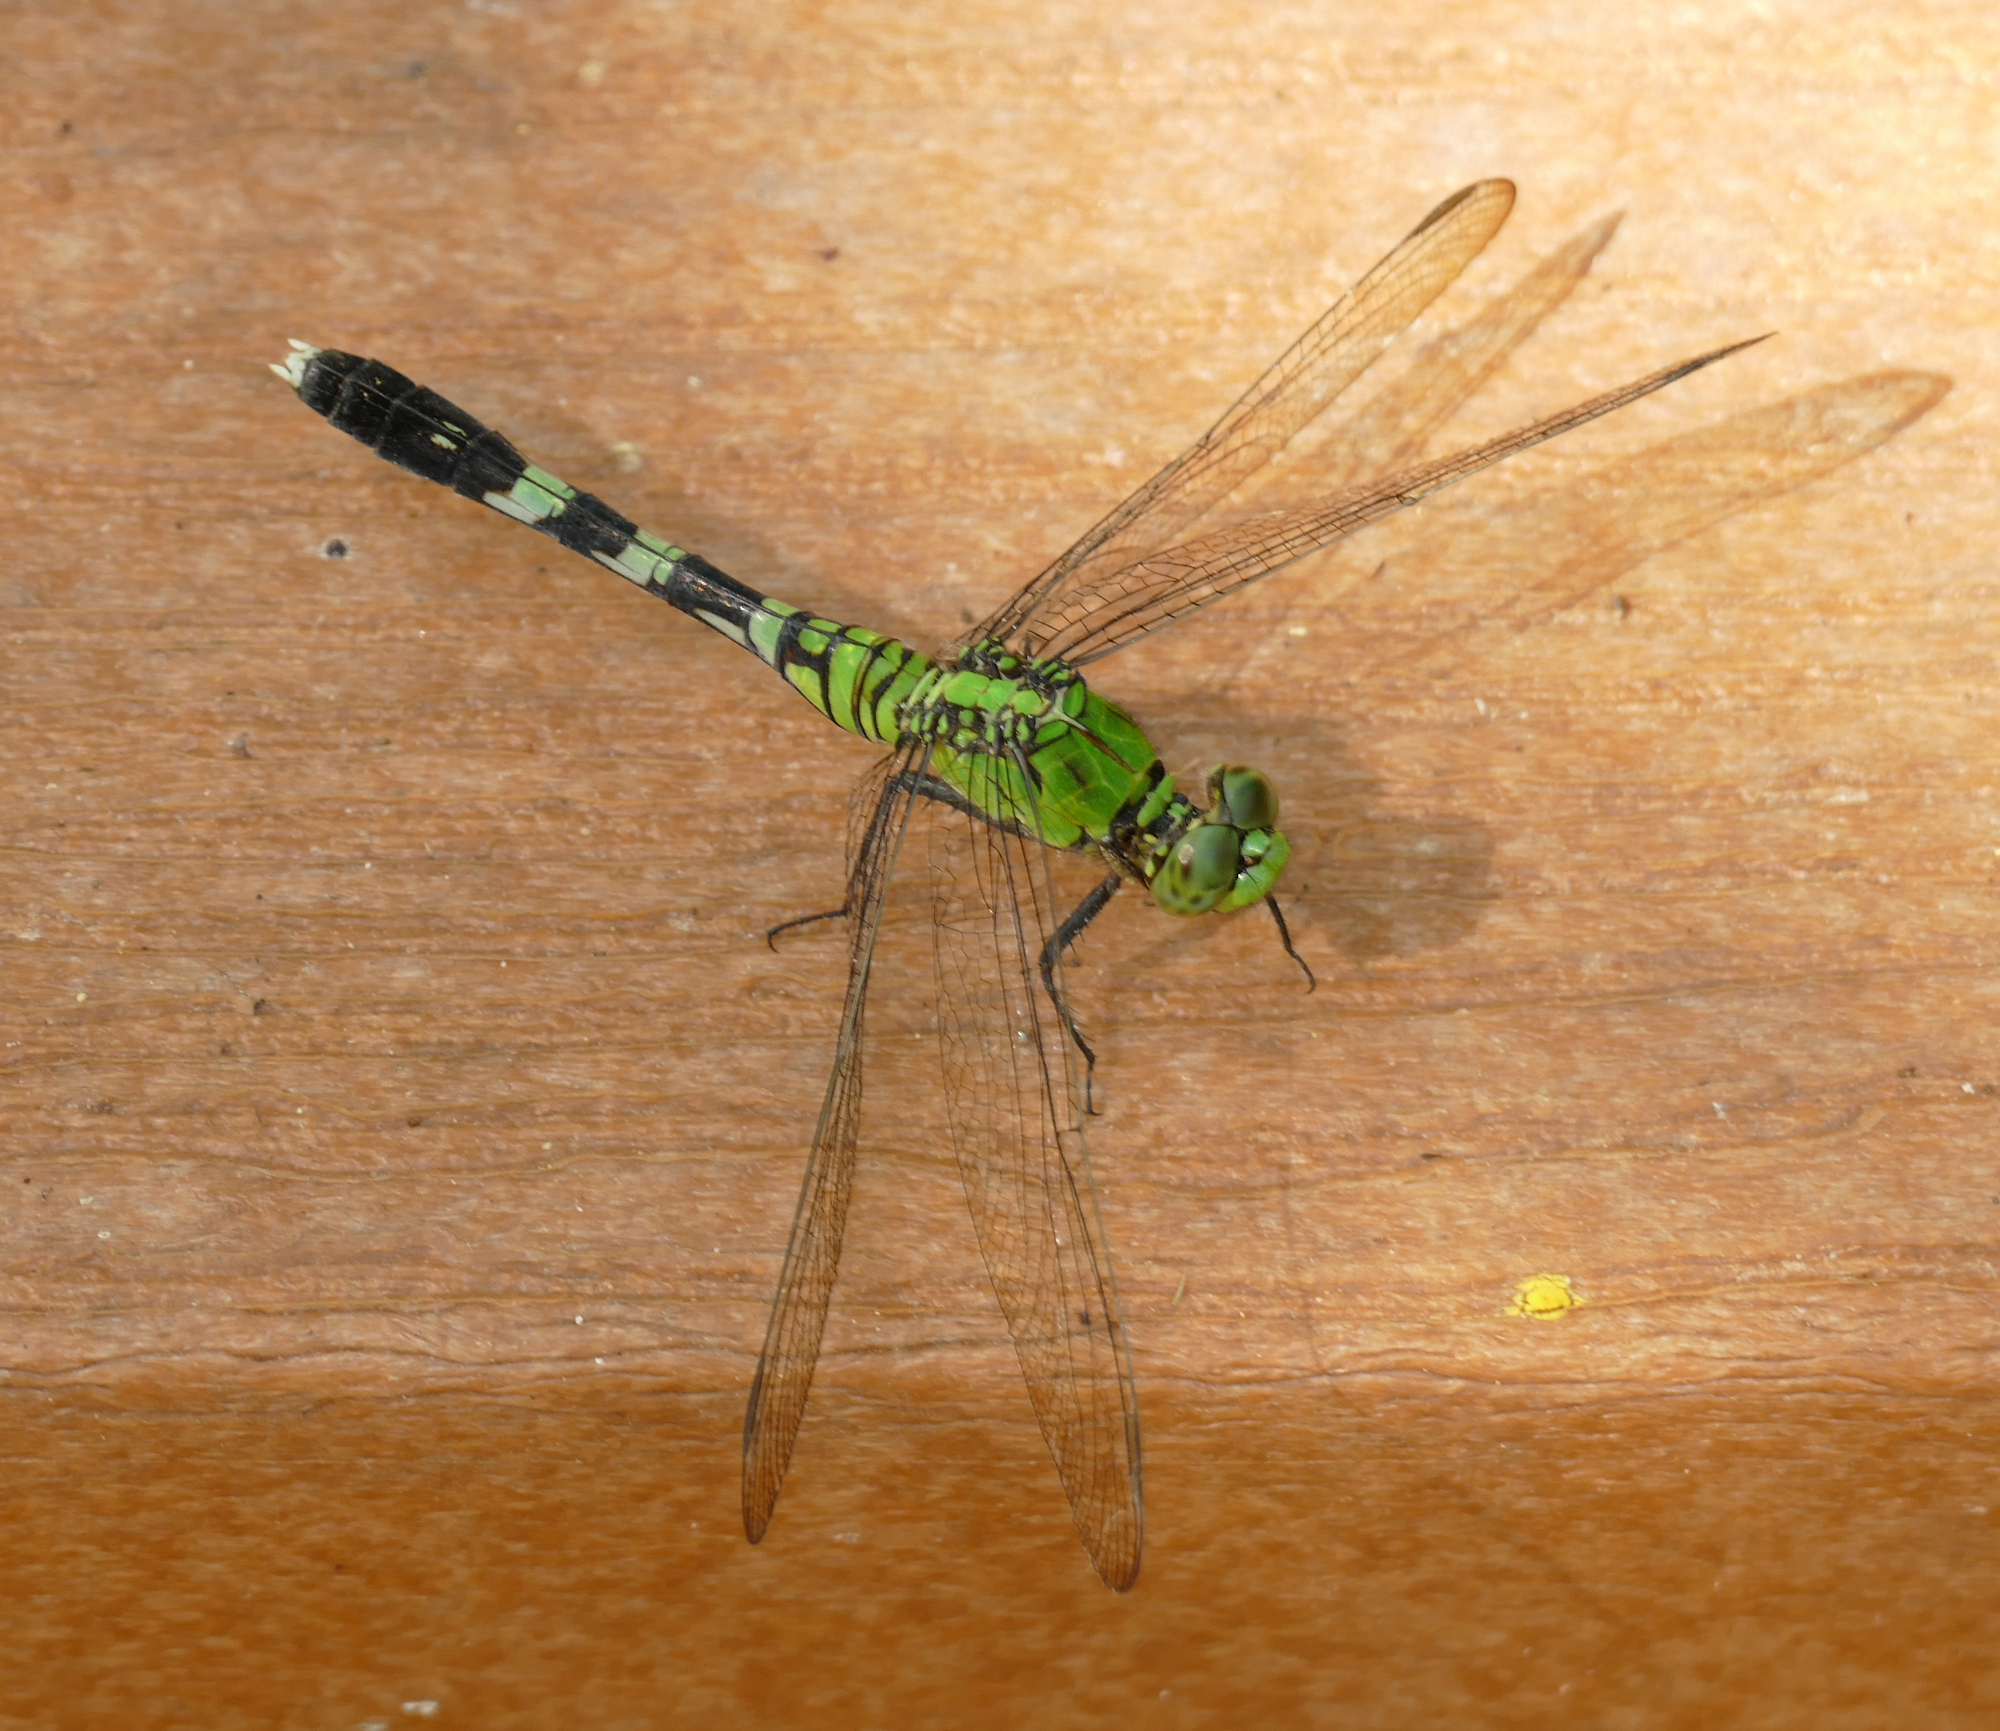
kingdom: Animalia
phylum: Arthropoda
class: Insecta
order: Odonata
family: Libellulidae
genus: Erythemis
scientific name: Erythemis simplicicollis
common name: Eastern pondhawk
